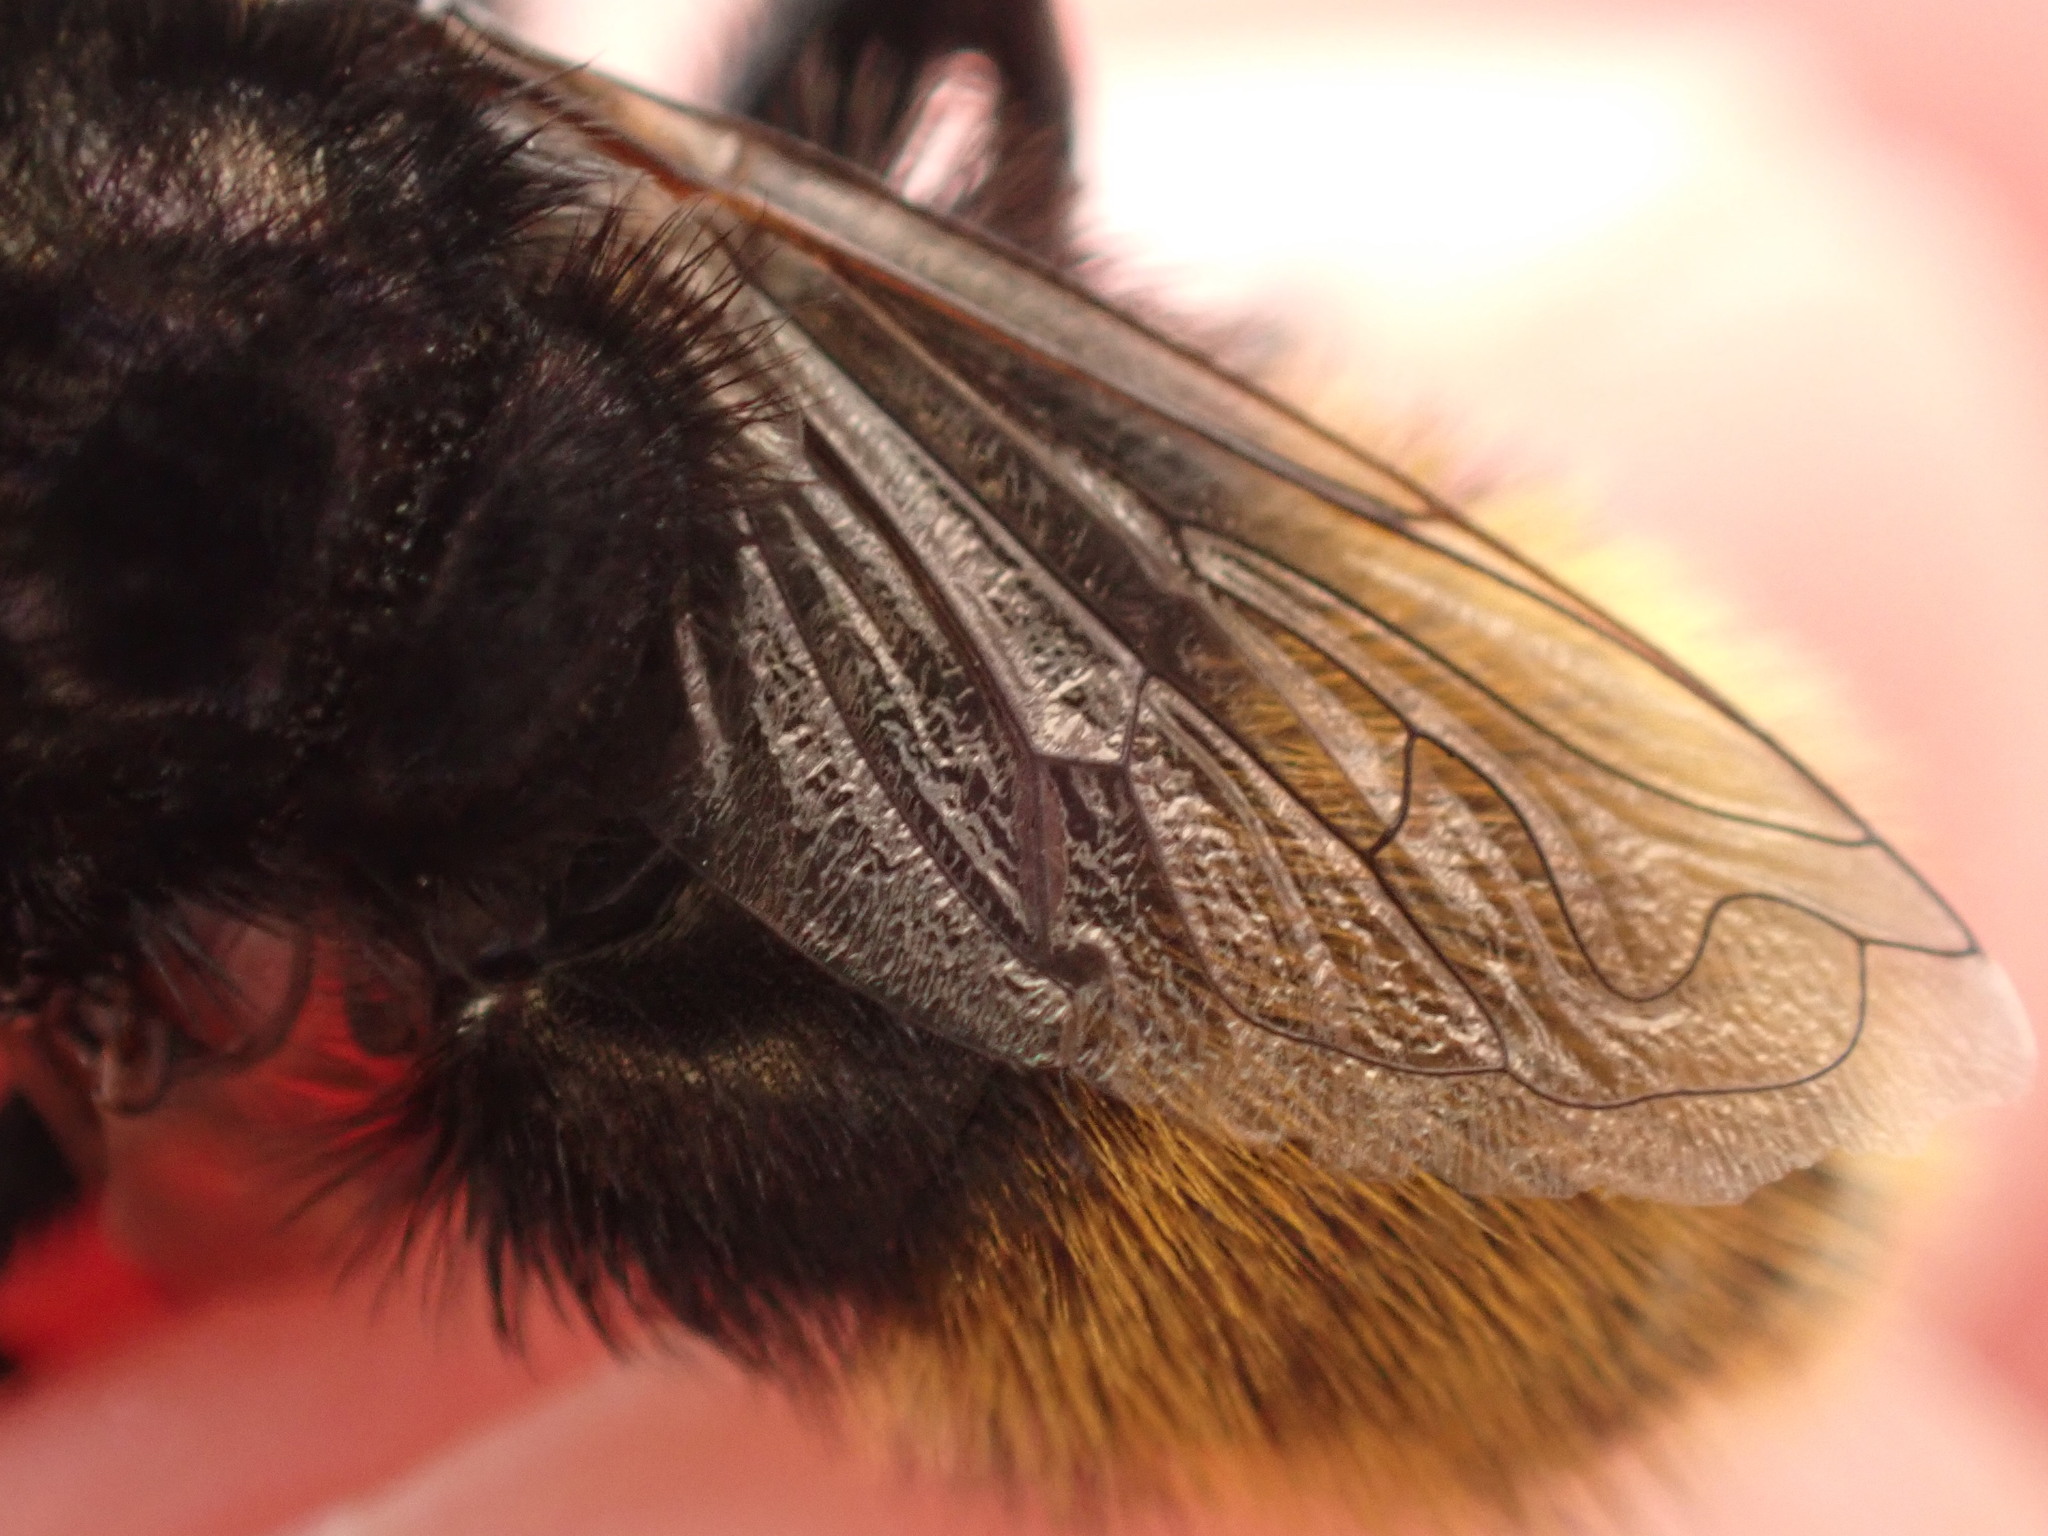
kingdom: Animalia
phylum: Arthropoda
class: Insecta
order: Diptera
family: Syrphidae
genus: Merodon
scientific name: Merodon equestris
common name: Greater bulb-fly
